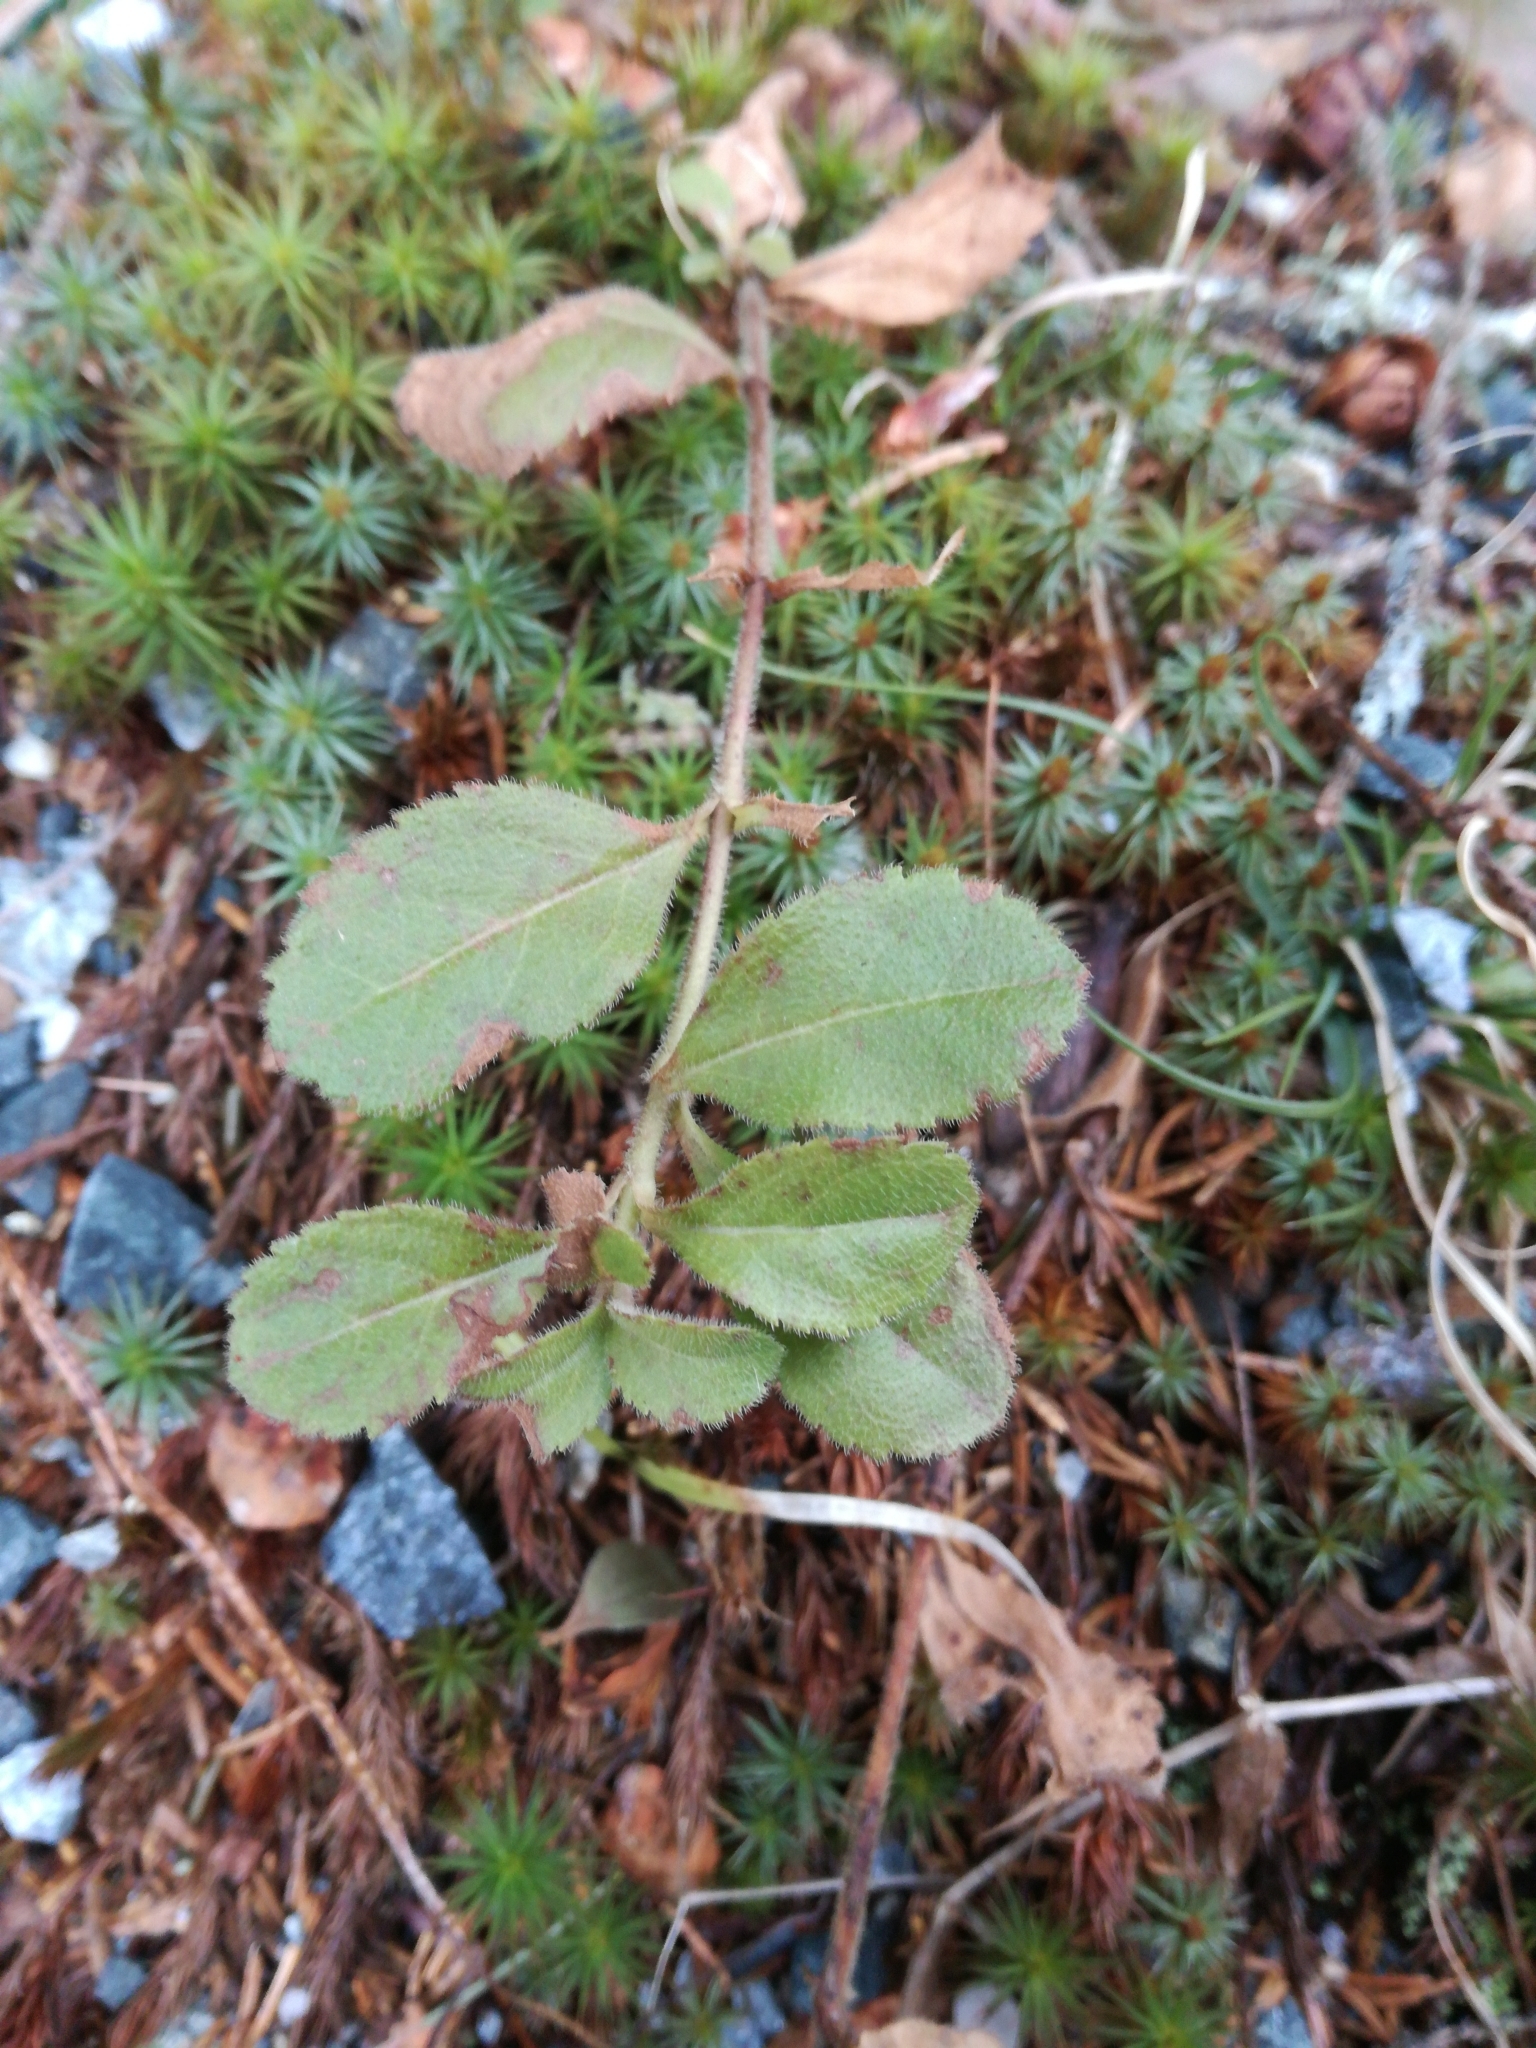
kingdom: Plantae
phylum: Tracheophyta
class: Magnoliopsida
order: Lamiales
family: Plantaginaceae
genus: Veronica
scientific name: Veronica officinalis
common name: Common speedwell
